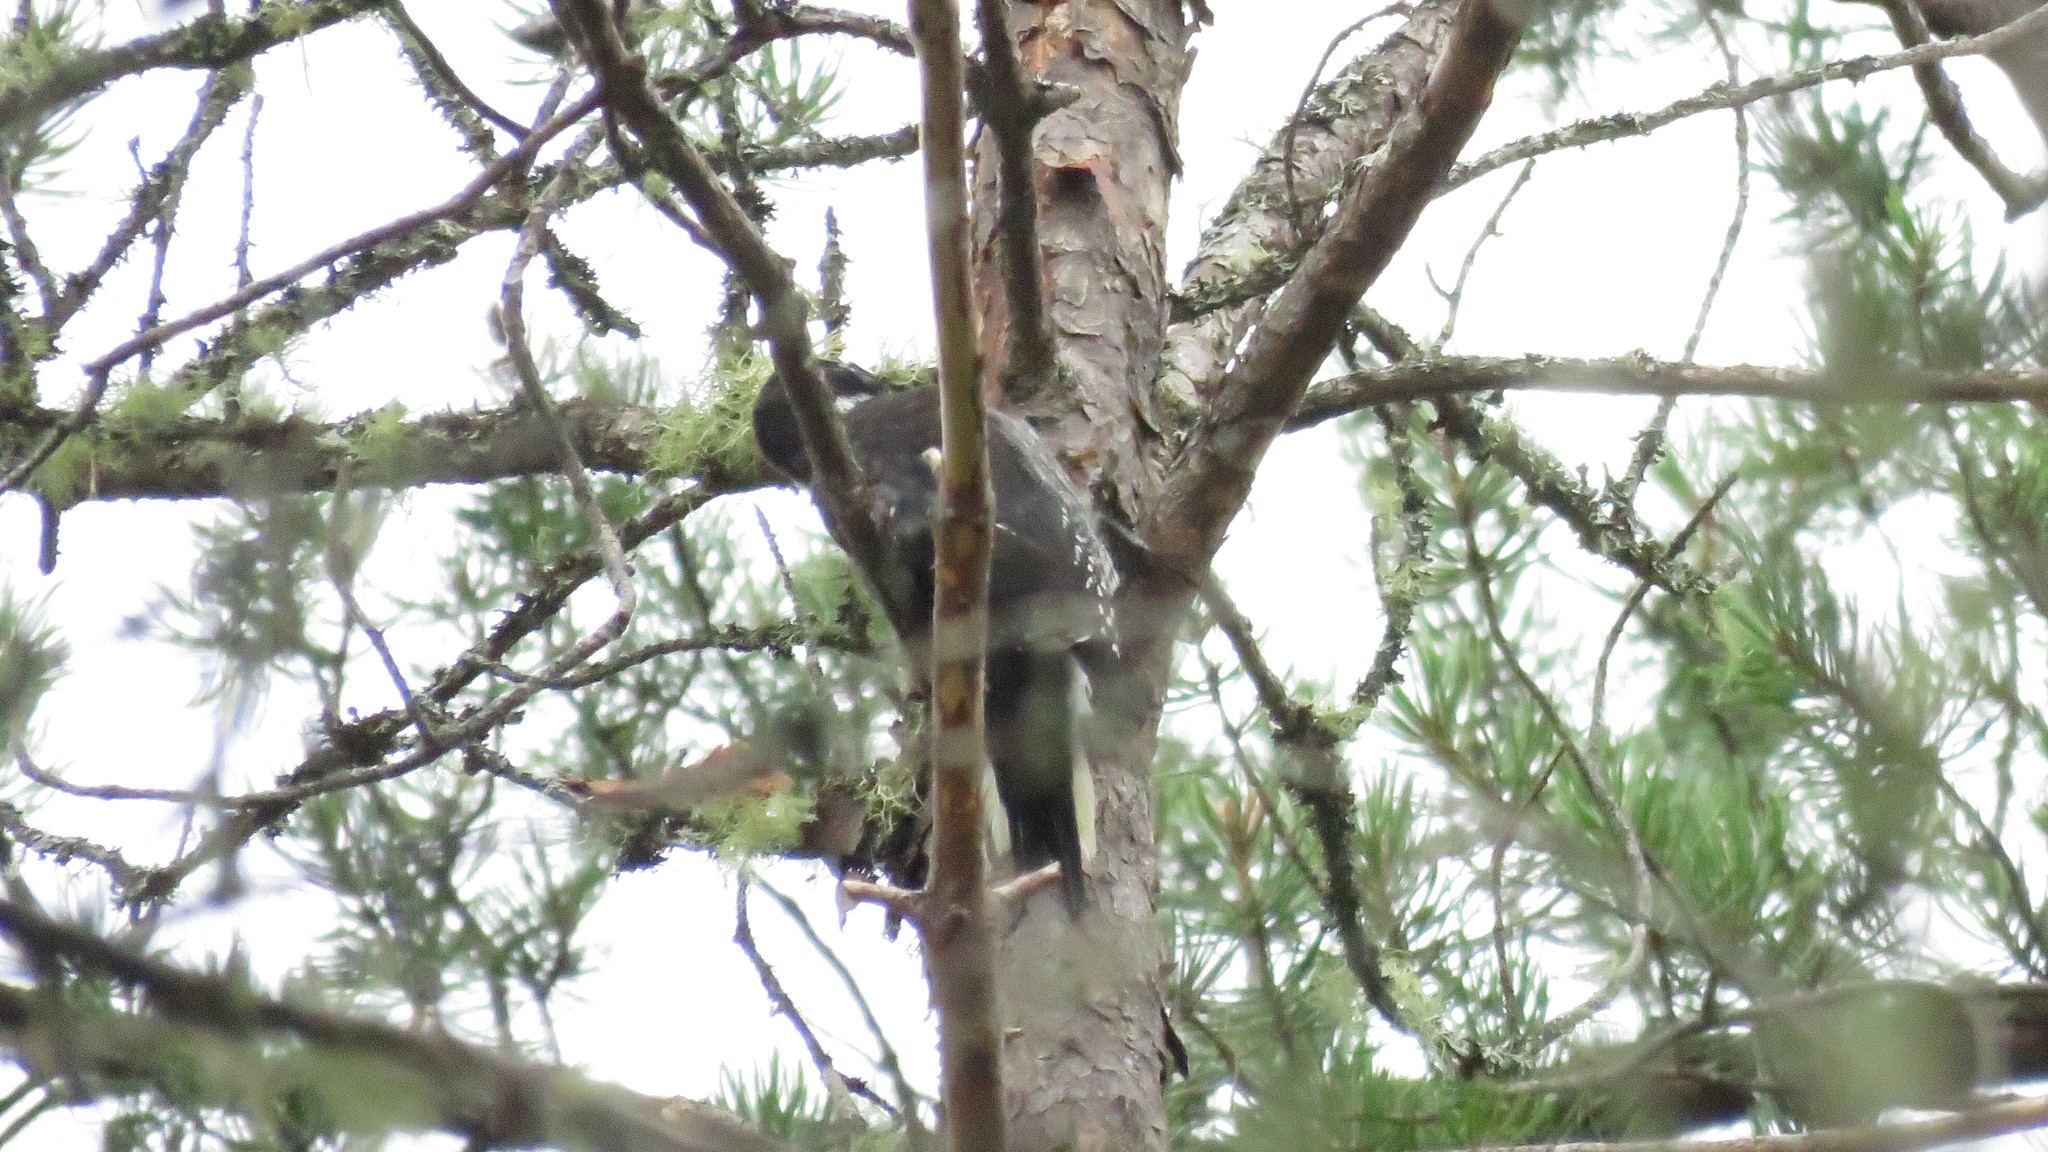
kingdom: Animalia
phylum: Chordata
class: Aves
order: Piciformes
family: Picidae
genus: Picoides
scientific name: Picoides arcticus
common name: Black-backed woodpecker
